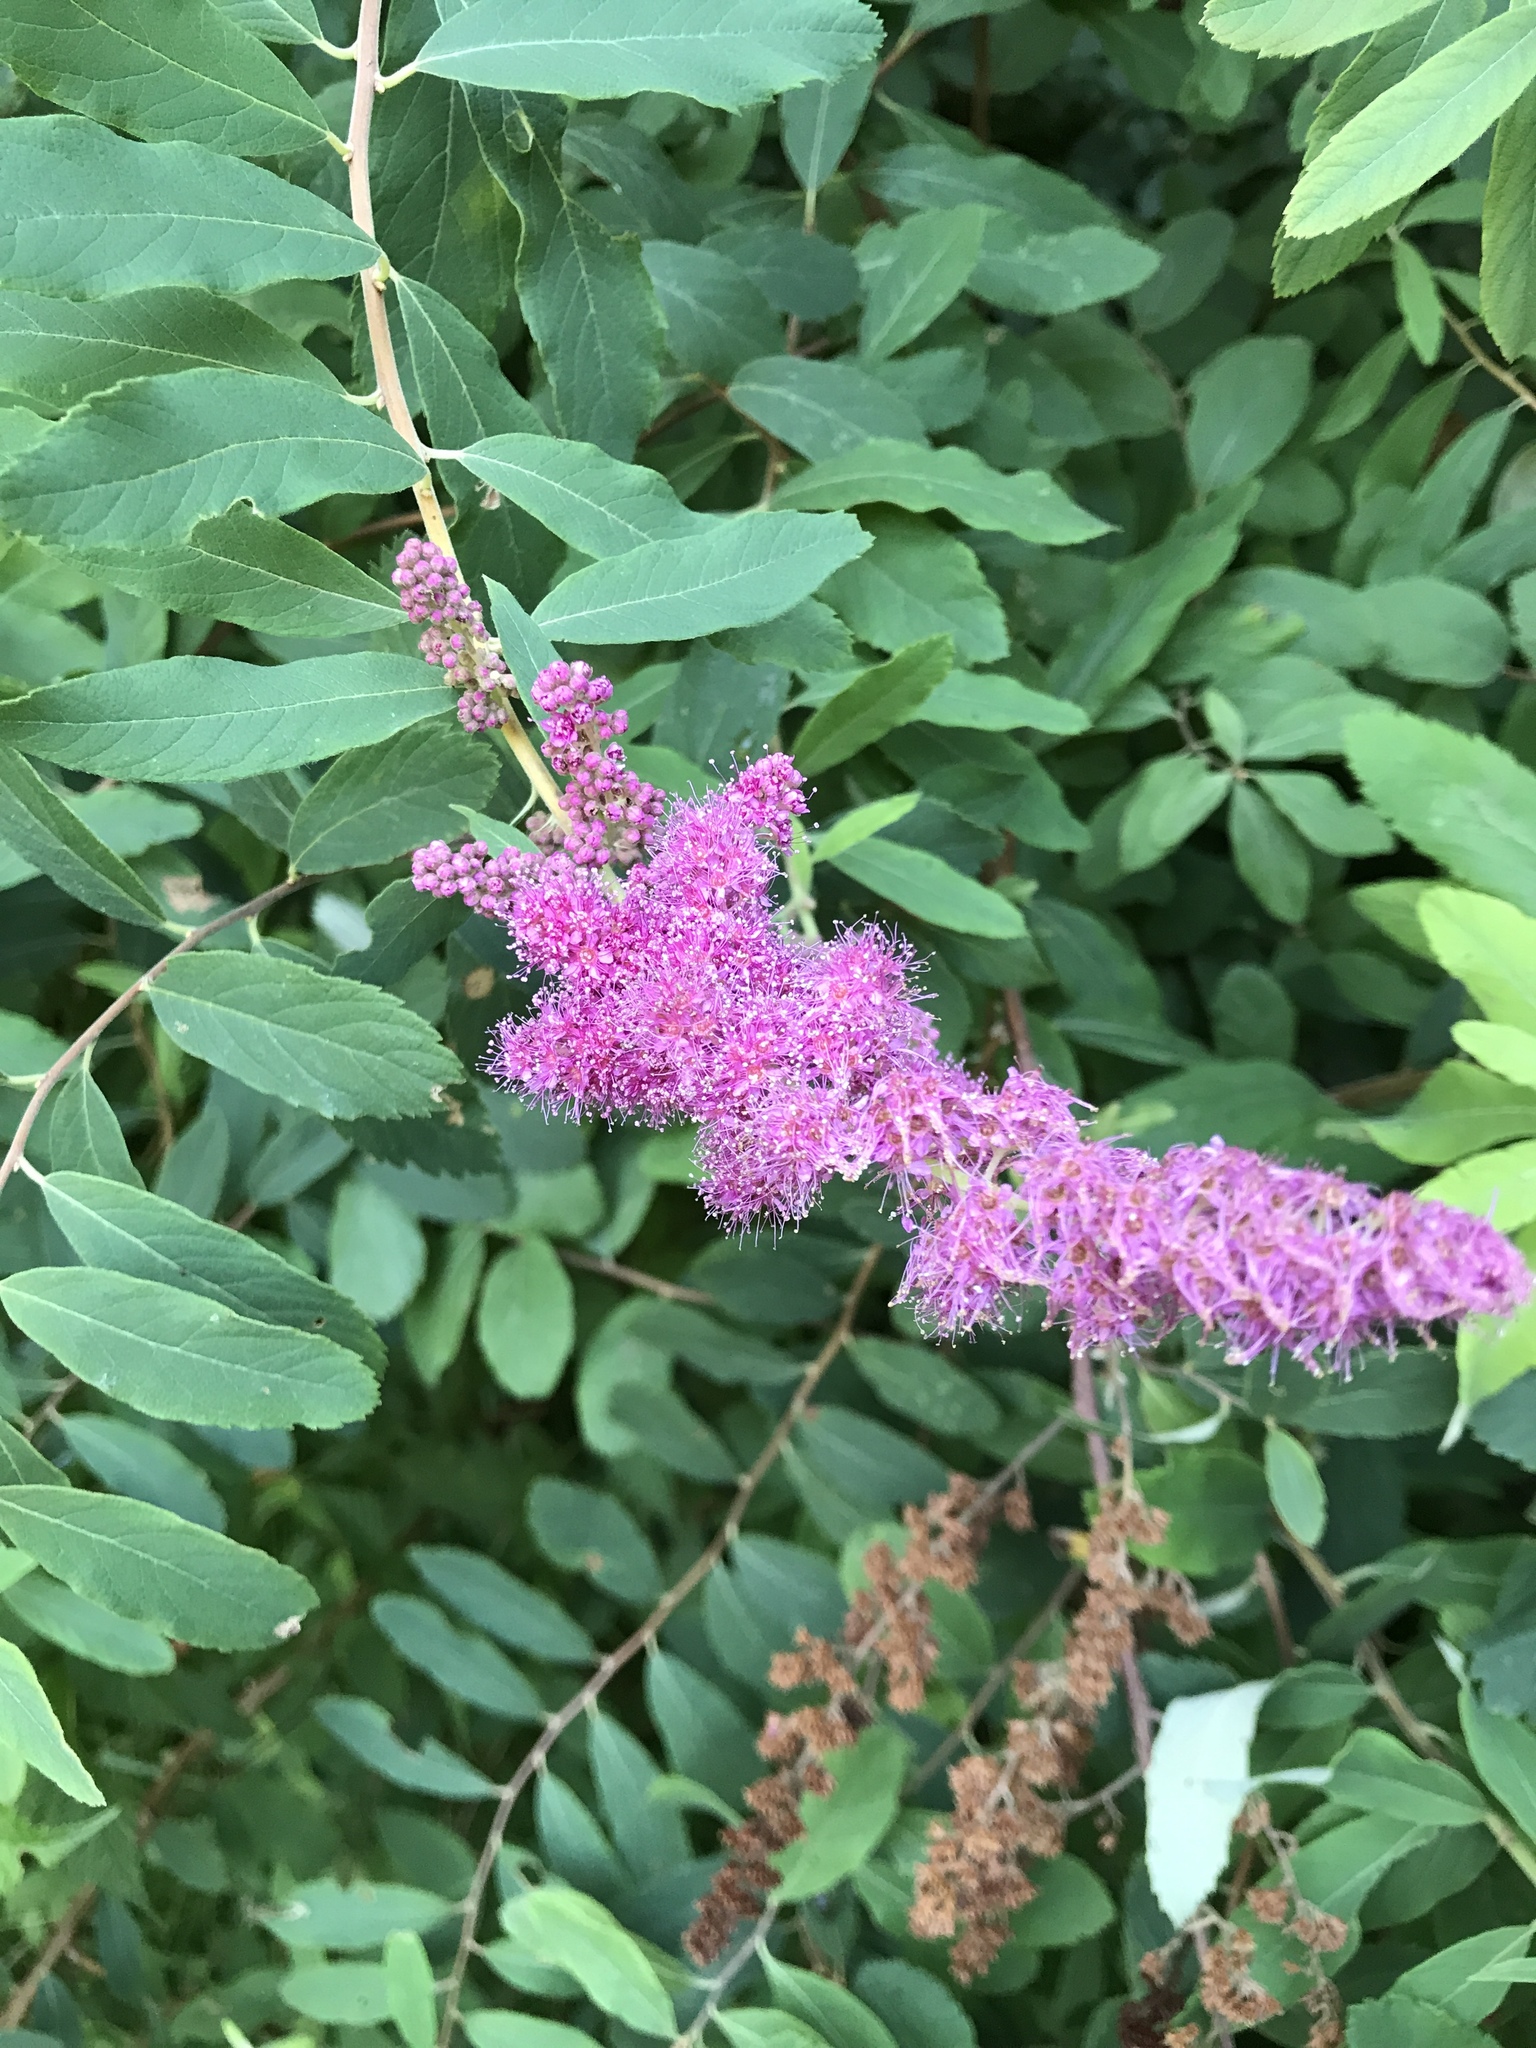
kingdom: Plantae
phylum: Tracheophyta
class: Magnoliopsida
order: Rosales
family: Rosaceae
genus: Spiraea
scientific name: Spiraea douglasii
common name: Steeplebush
